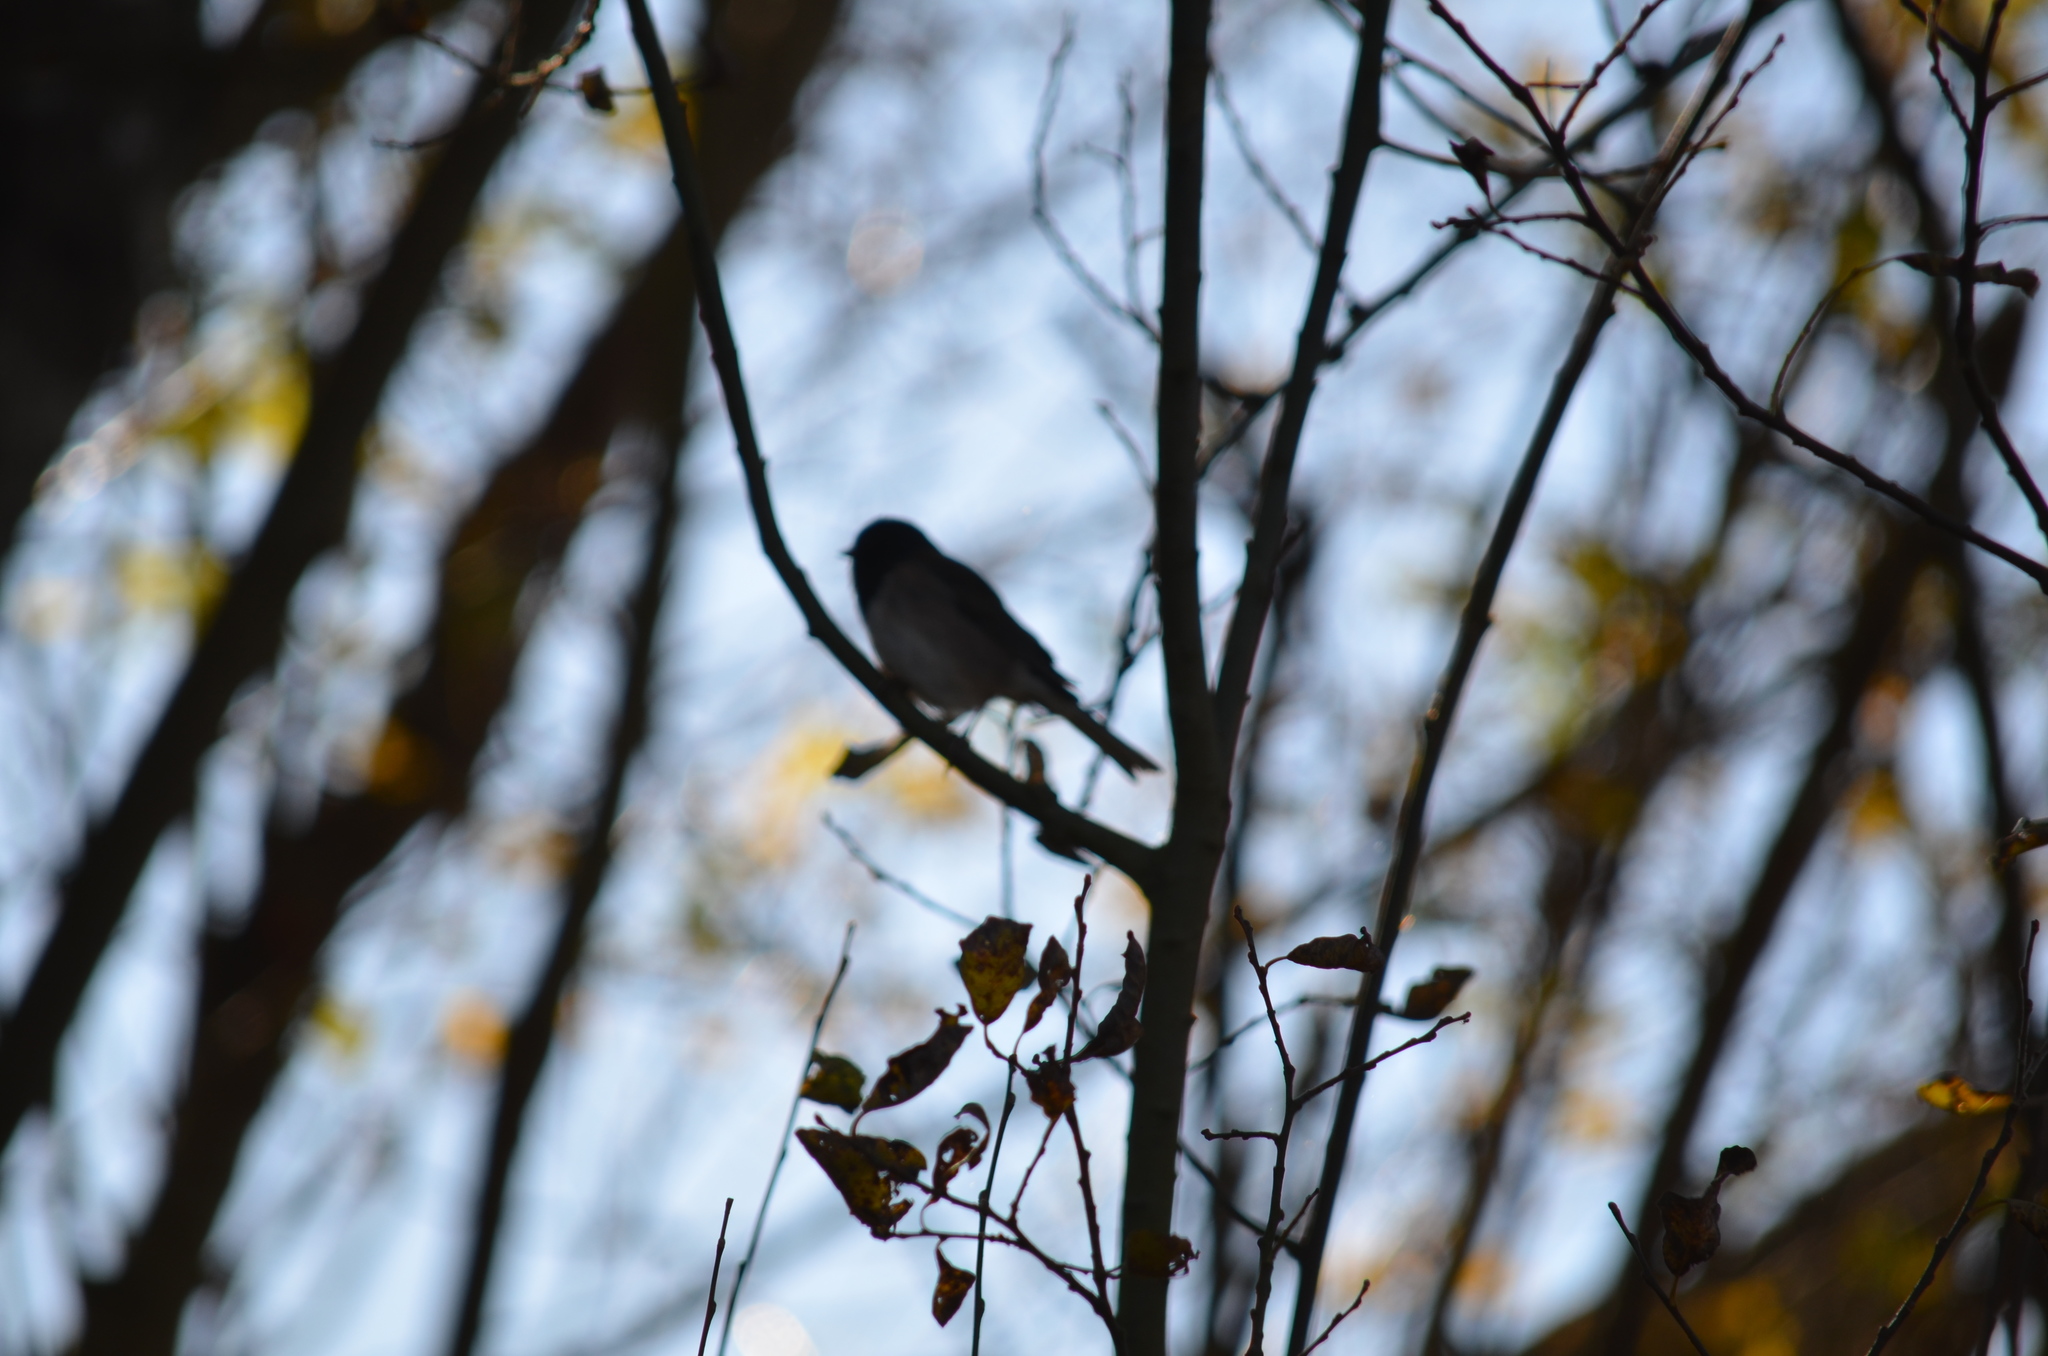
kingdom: Animalia
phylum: Chordata
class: Aves
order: Passeriformes
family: Passerellidae
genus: Junco
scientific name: Junco hyemalis
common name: Dark-eyed junco
